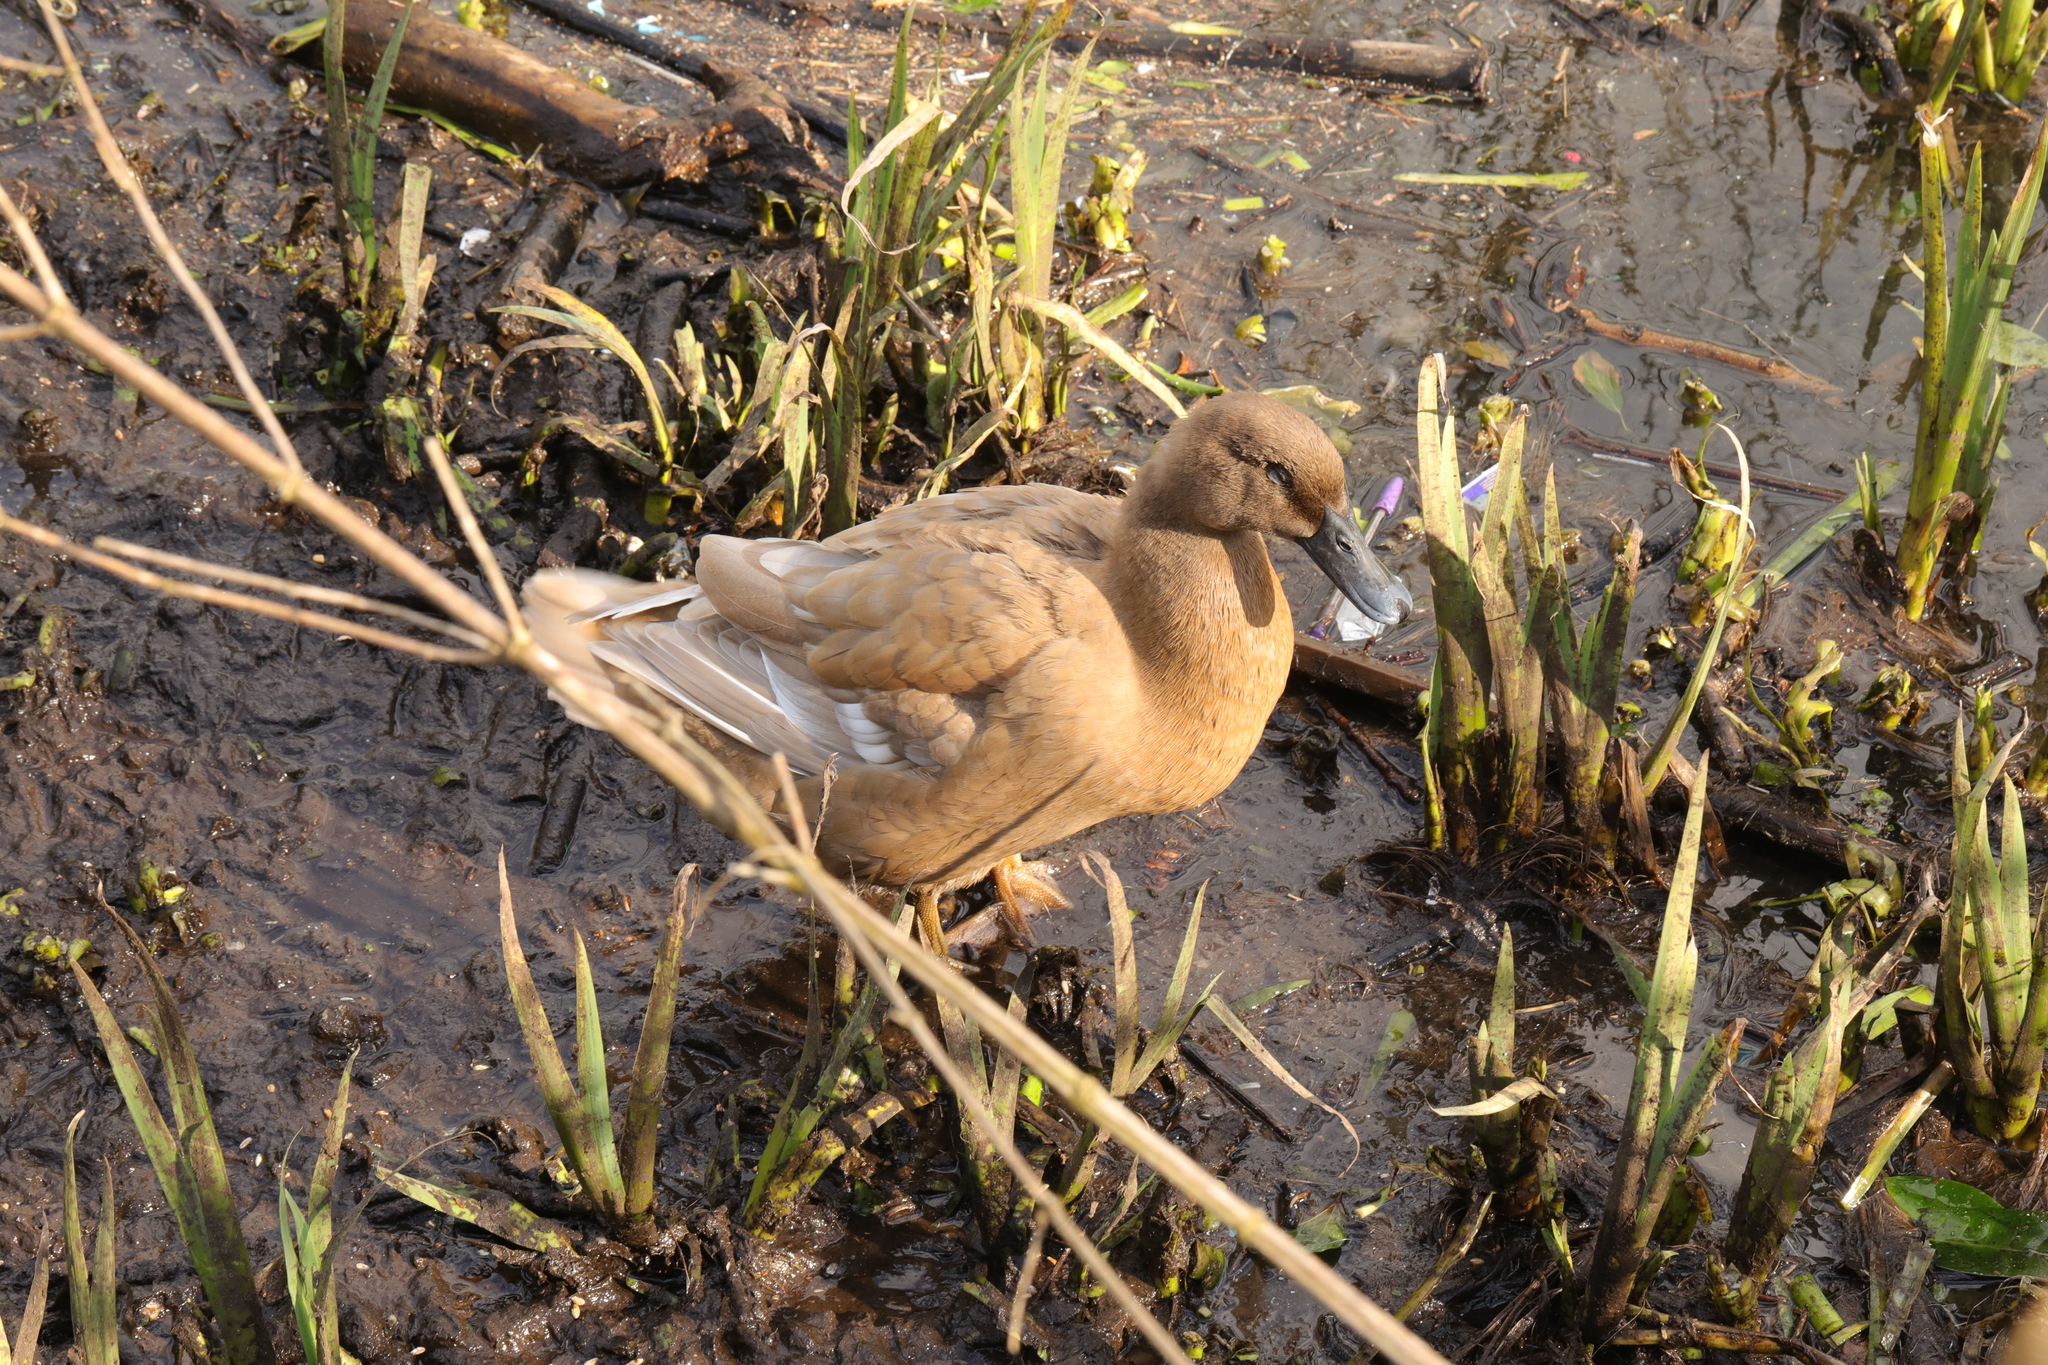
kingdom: Animalia
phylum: Chordata
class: Aves
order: Anseriformes
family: Anatidae
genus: Anas
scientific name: Anas platyrhynchos
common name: Mallard
